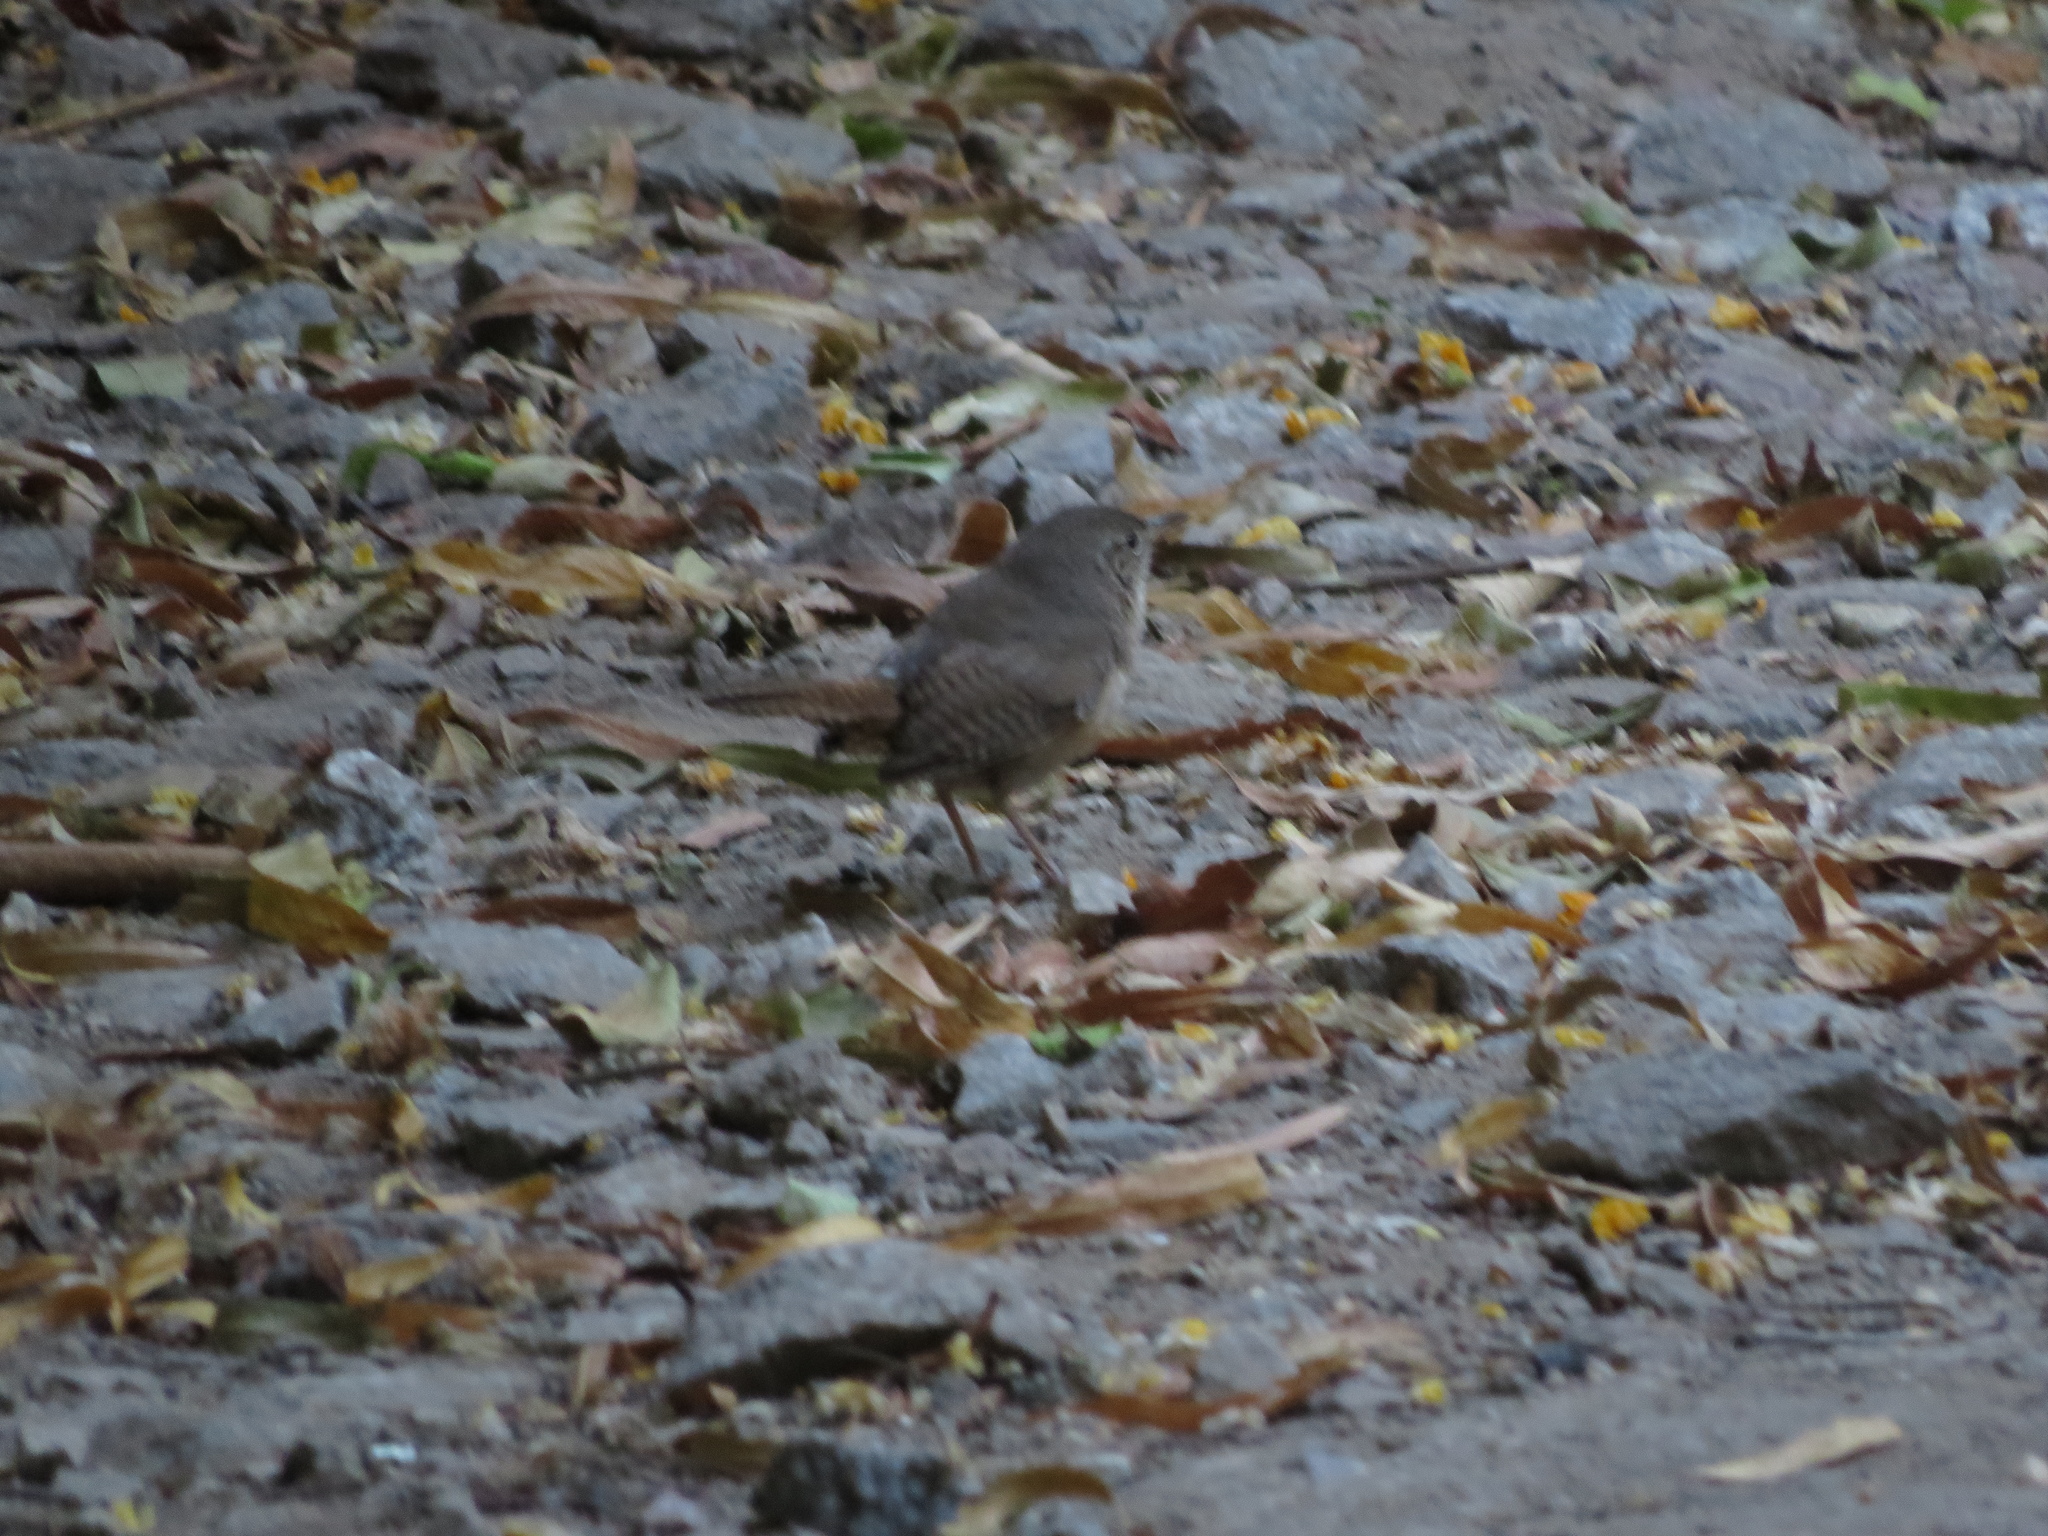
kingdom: Animalia
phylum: Chordata
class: Aves
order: Passeriformes
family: Troglodytidae
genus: Troglodytes
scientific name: Troglodytes aedon
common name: House wren
